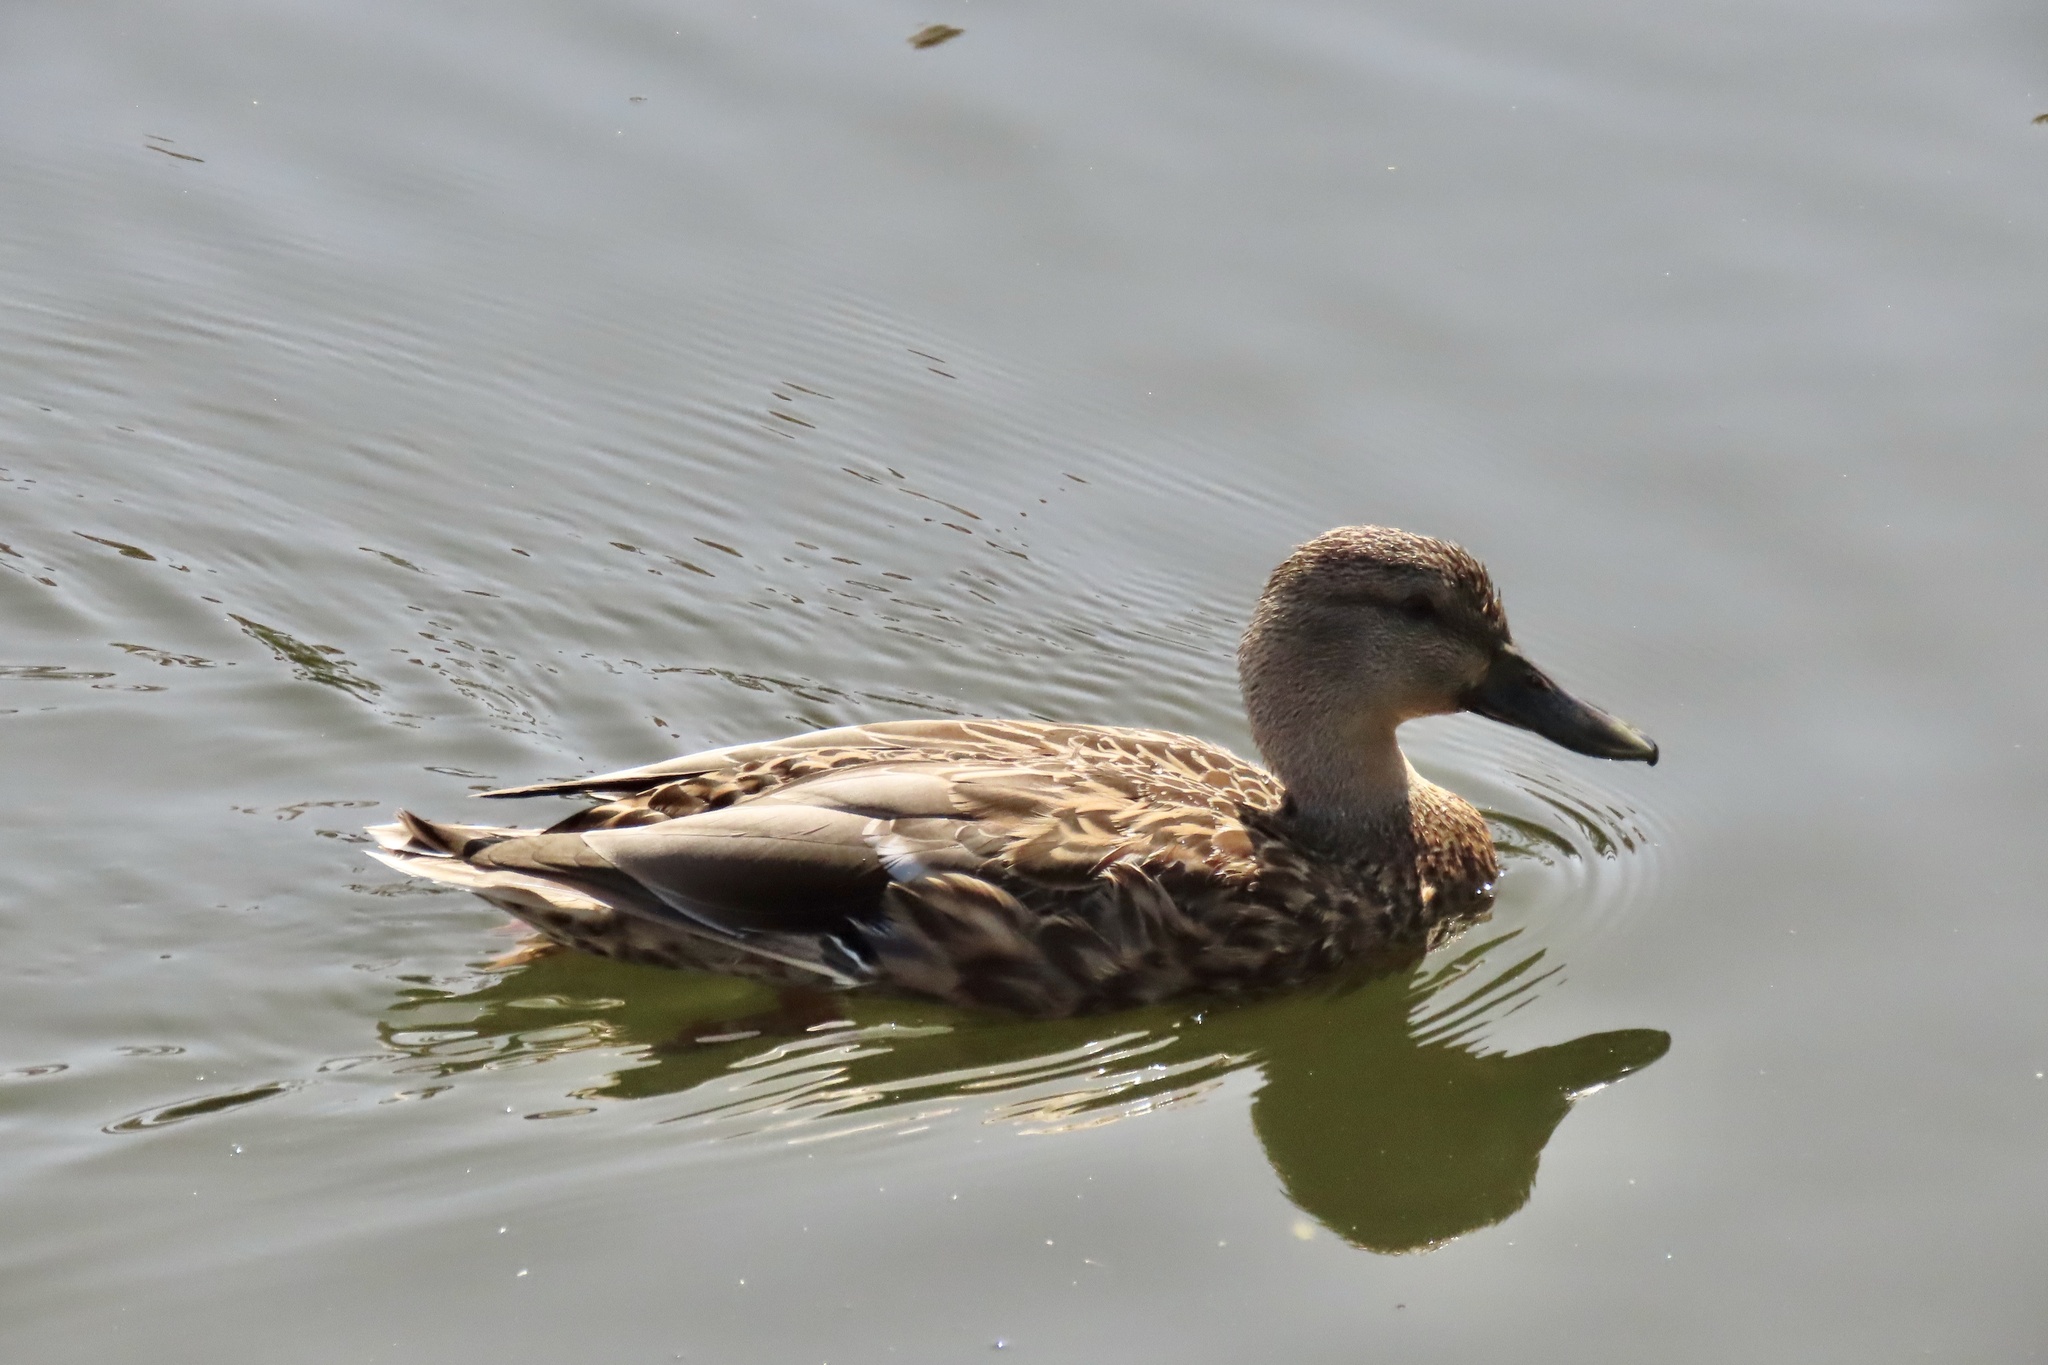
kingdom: Animalia
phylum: Chordata
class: Aves
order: Anseriformes
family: Anatidae
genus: Anas
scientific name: Anas platyrhynchos
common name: Mallard
